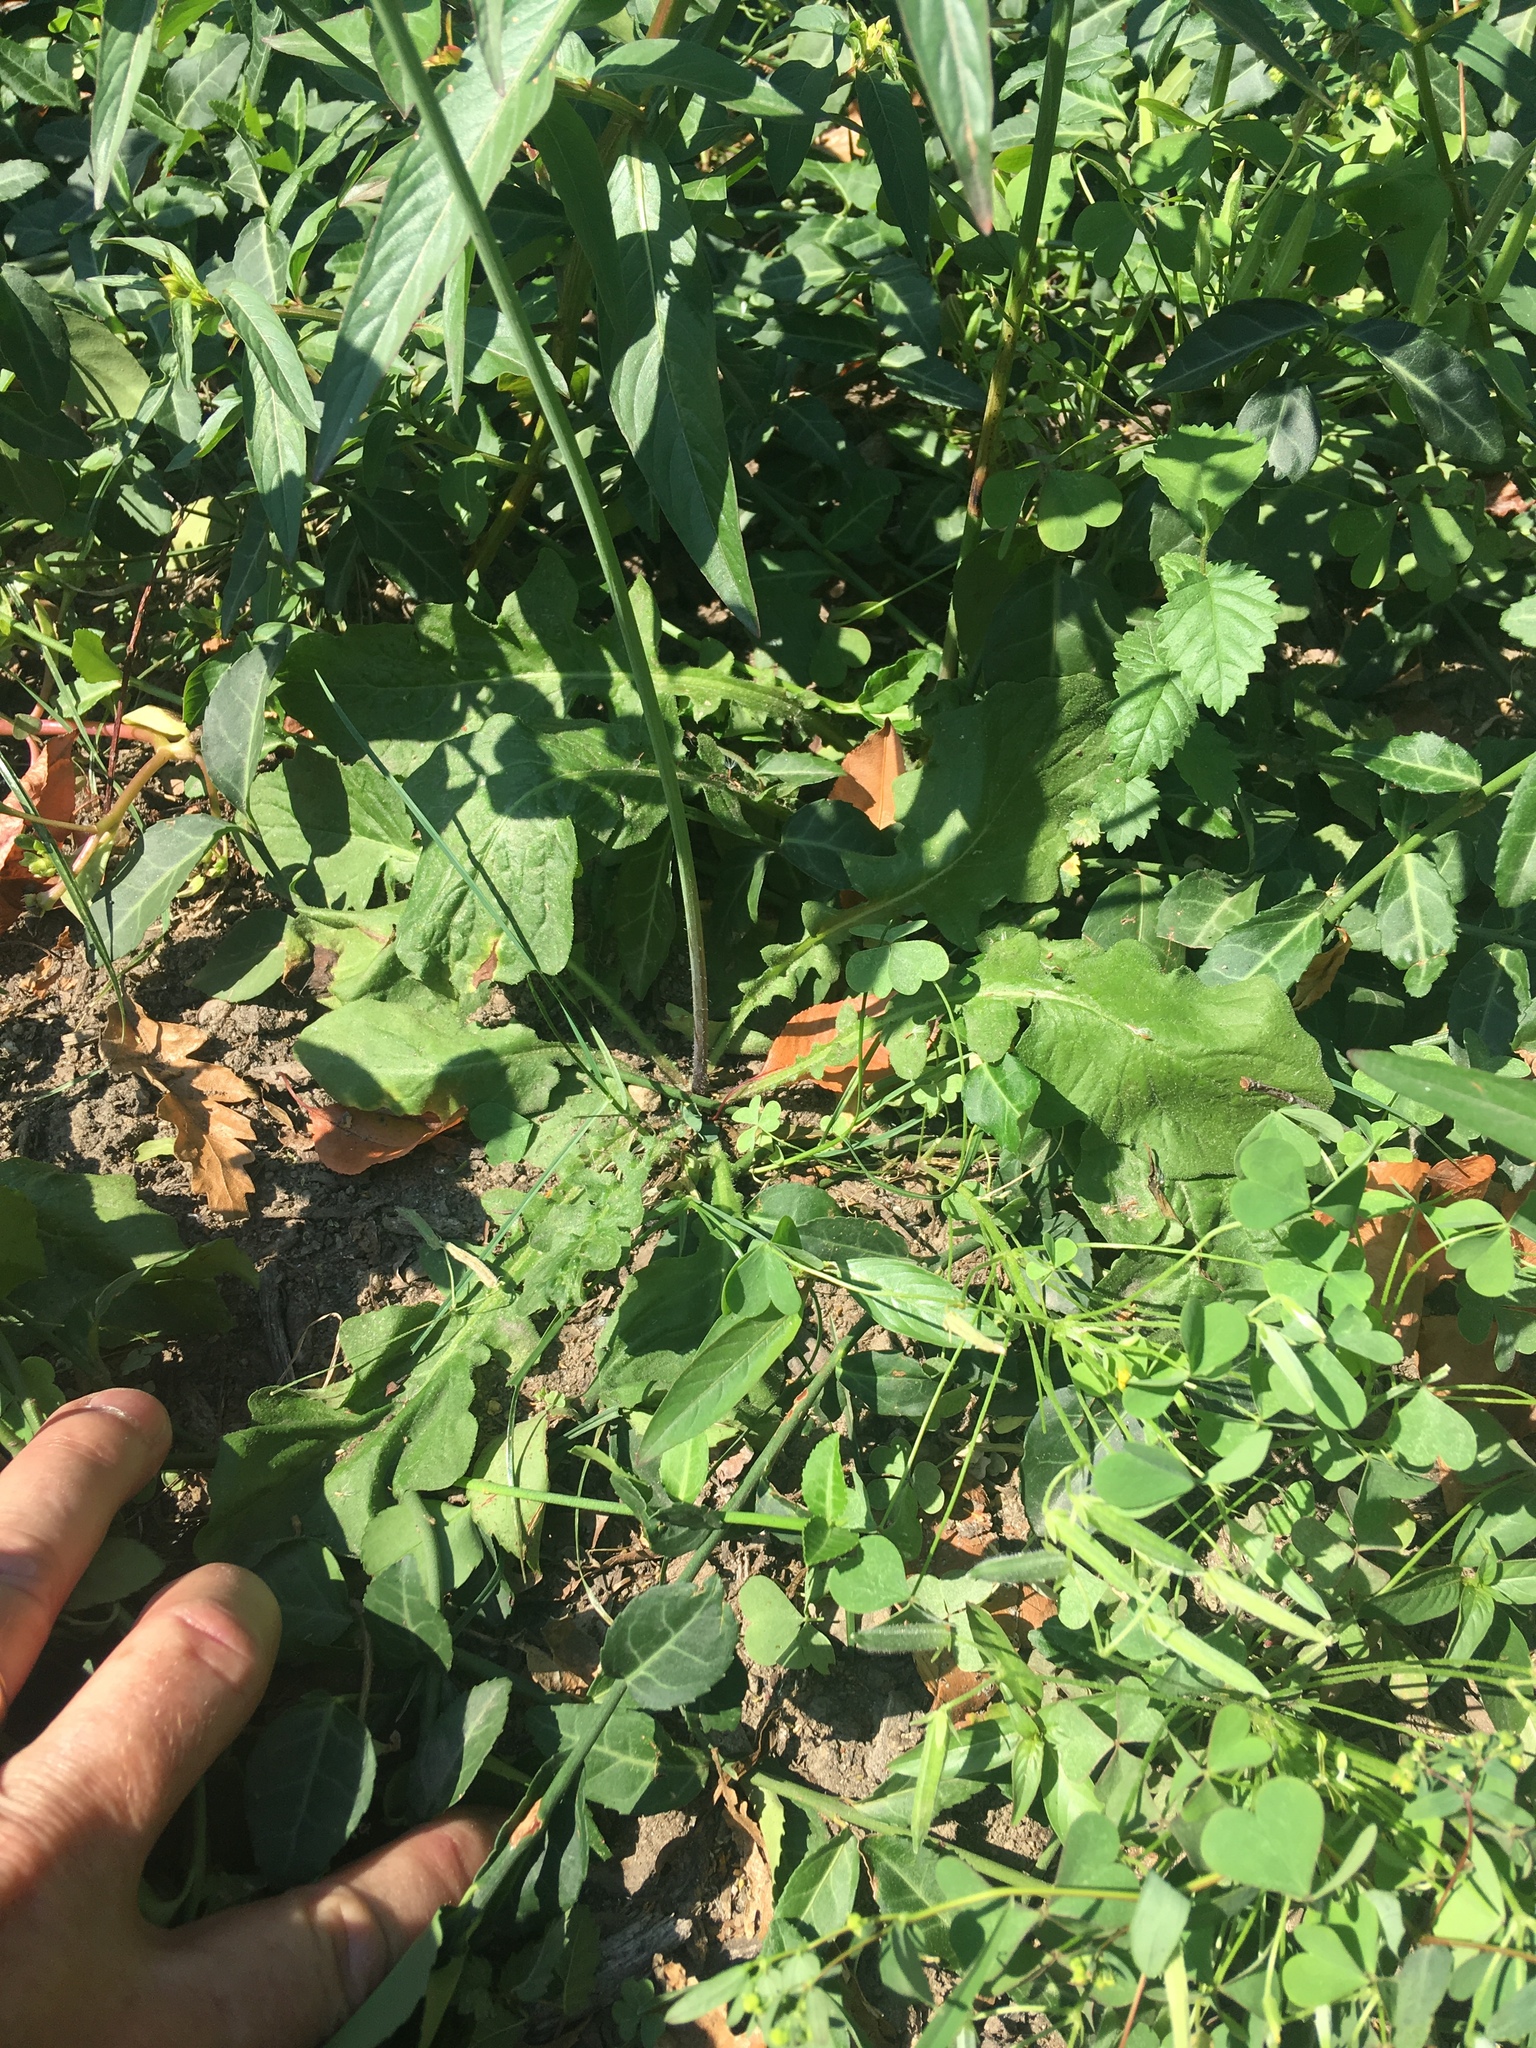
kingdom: Plantae
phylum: Tracheophyta
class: Magnoliopsida
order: Asterales
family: Asteraceae
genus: Youngia
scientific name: Youngia japonica
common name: Oriental false hawksbeard
